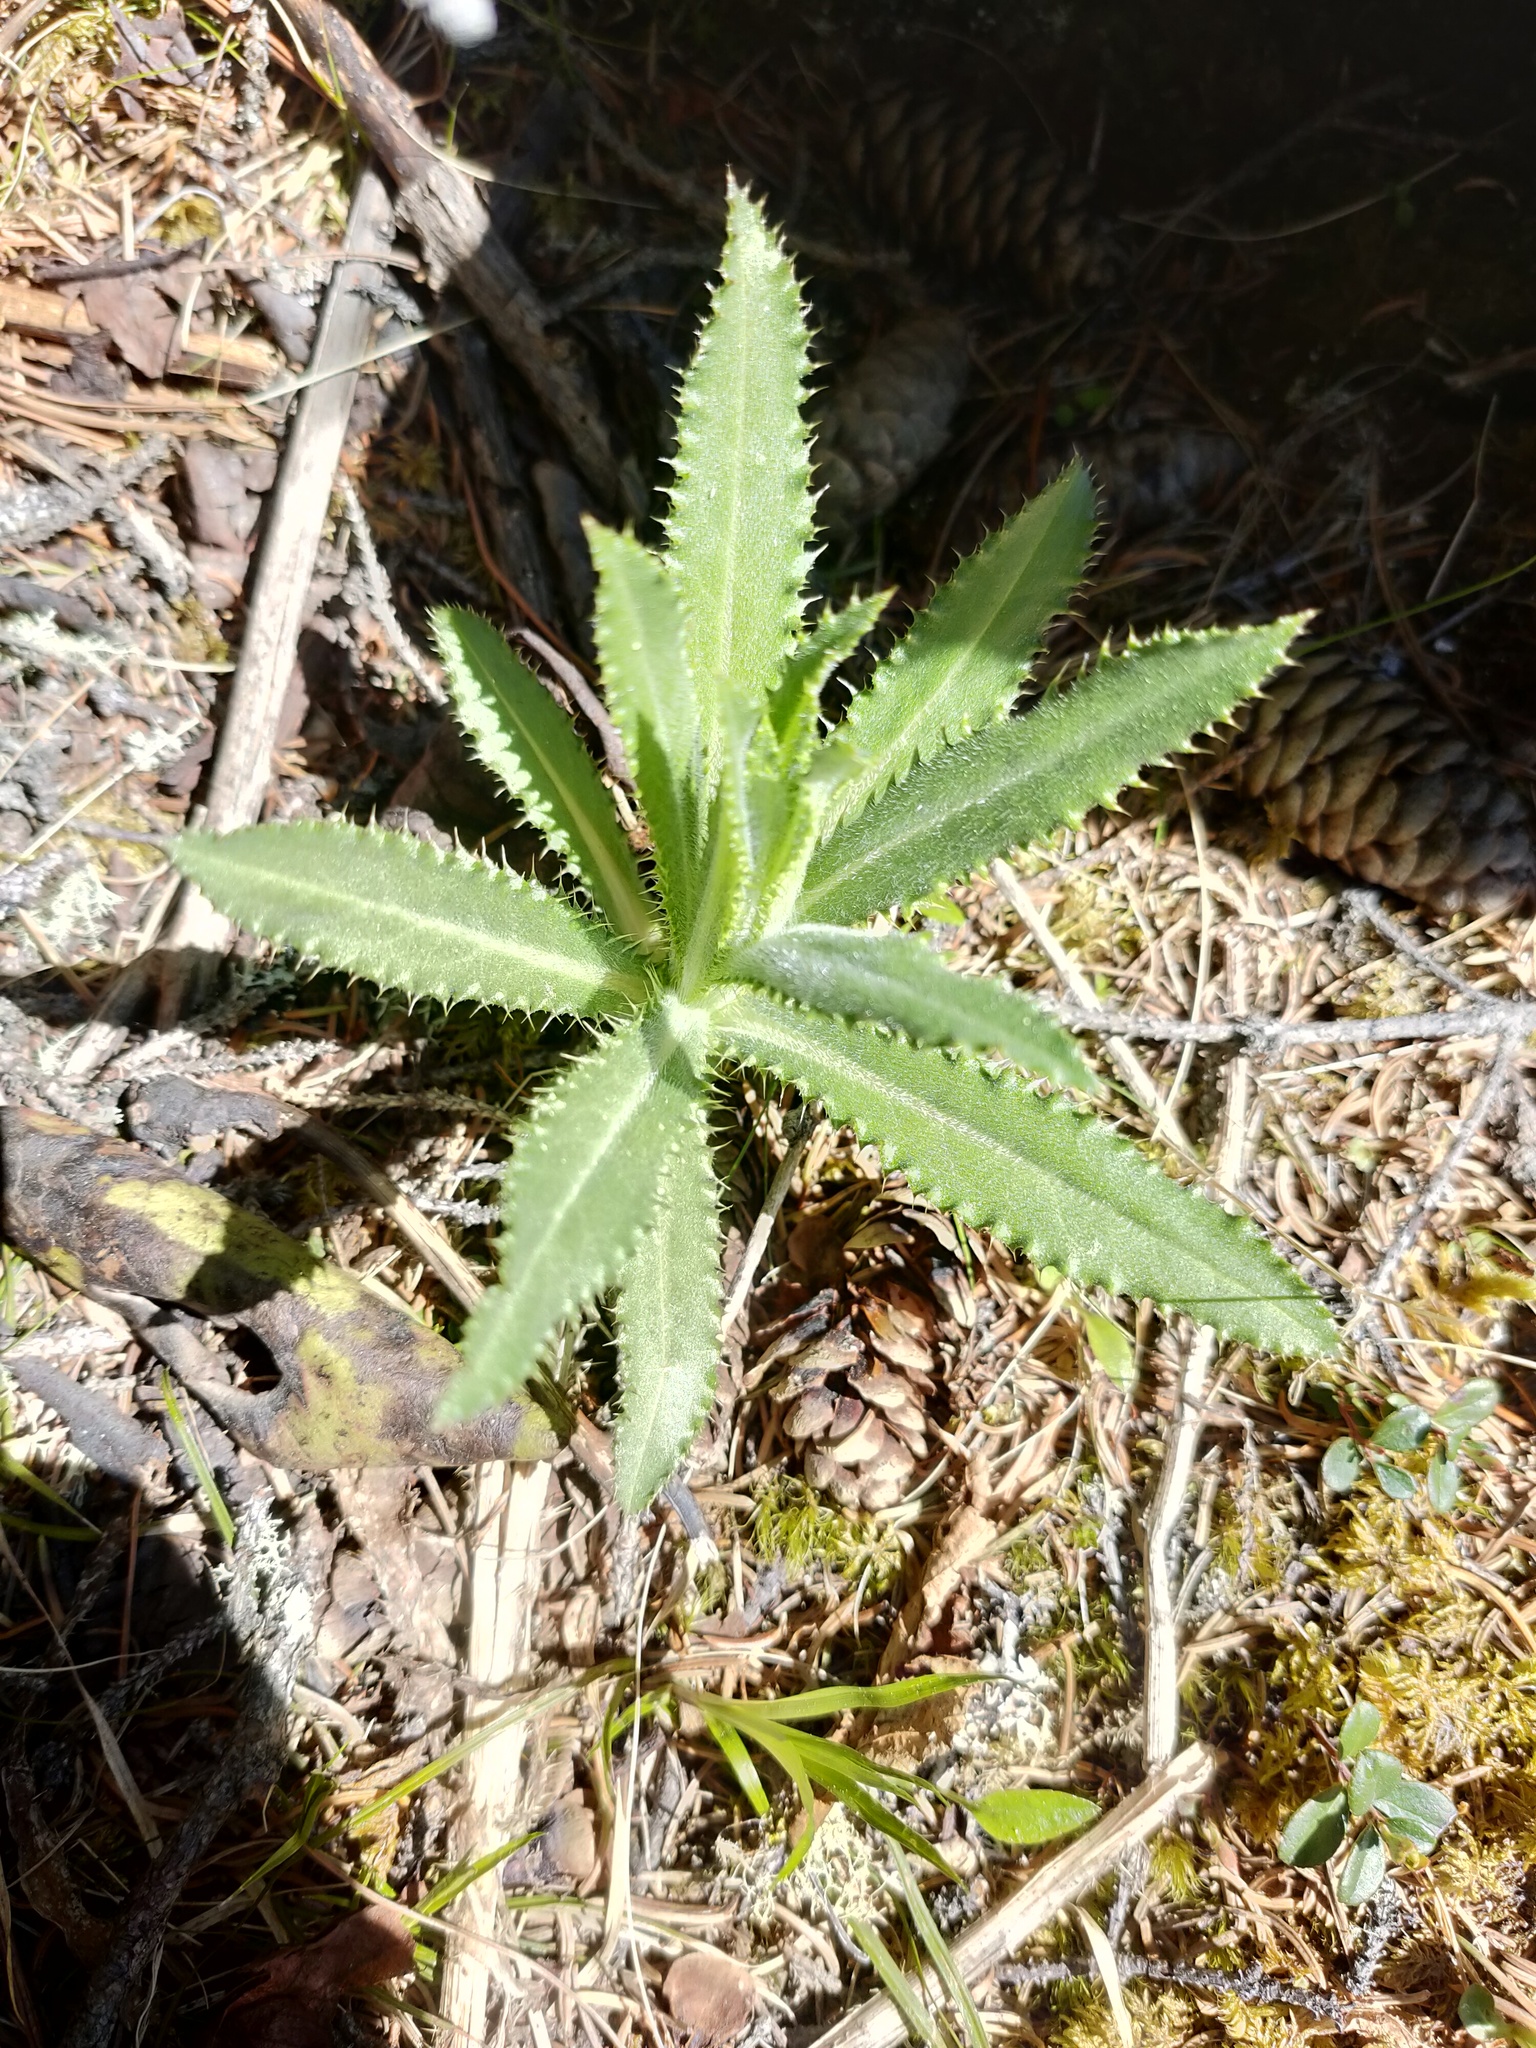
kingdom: Plantae
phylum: Tracheophyta
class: Magnoliopsida
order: Asterales
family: Asteraceae
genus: Cirsium
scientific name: Cirsium serratuloides
